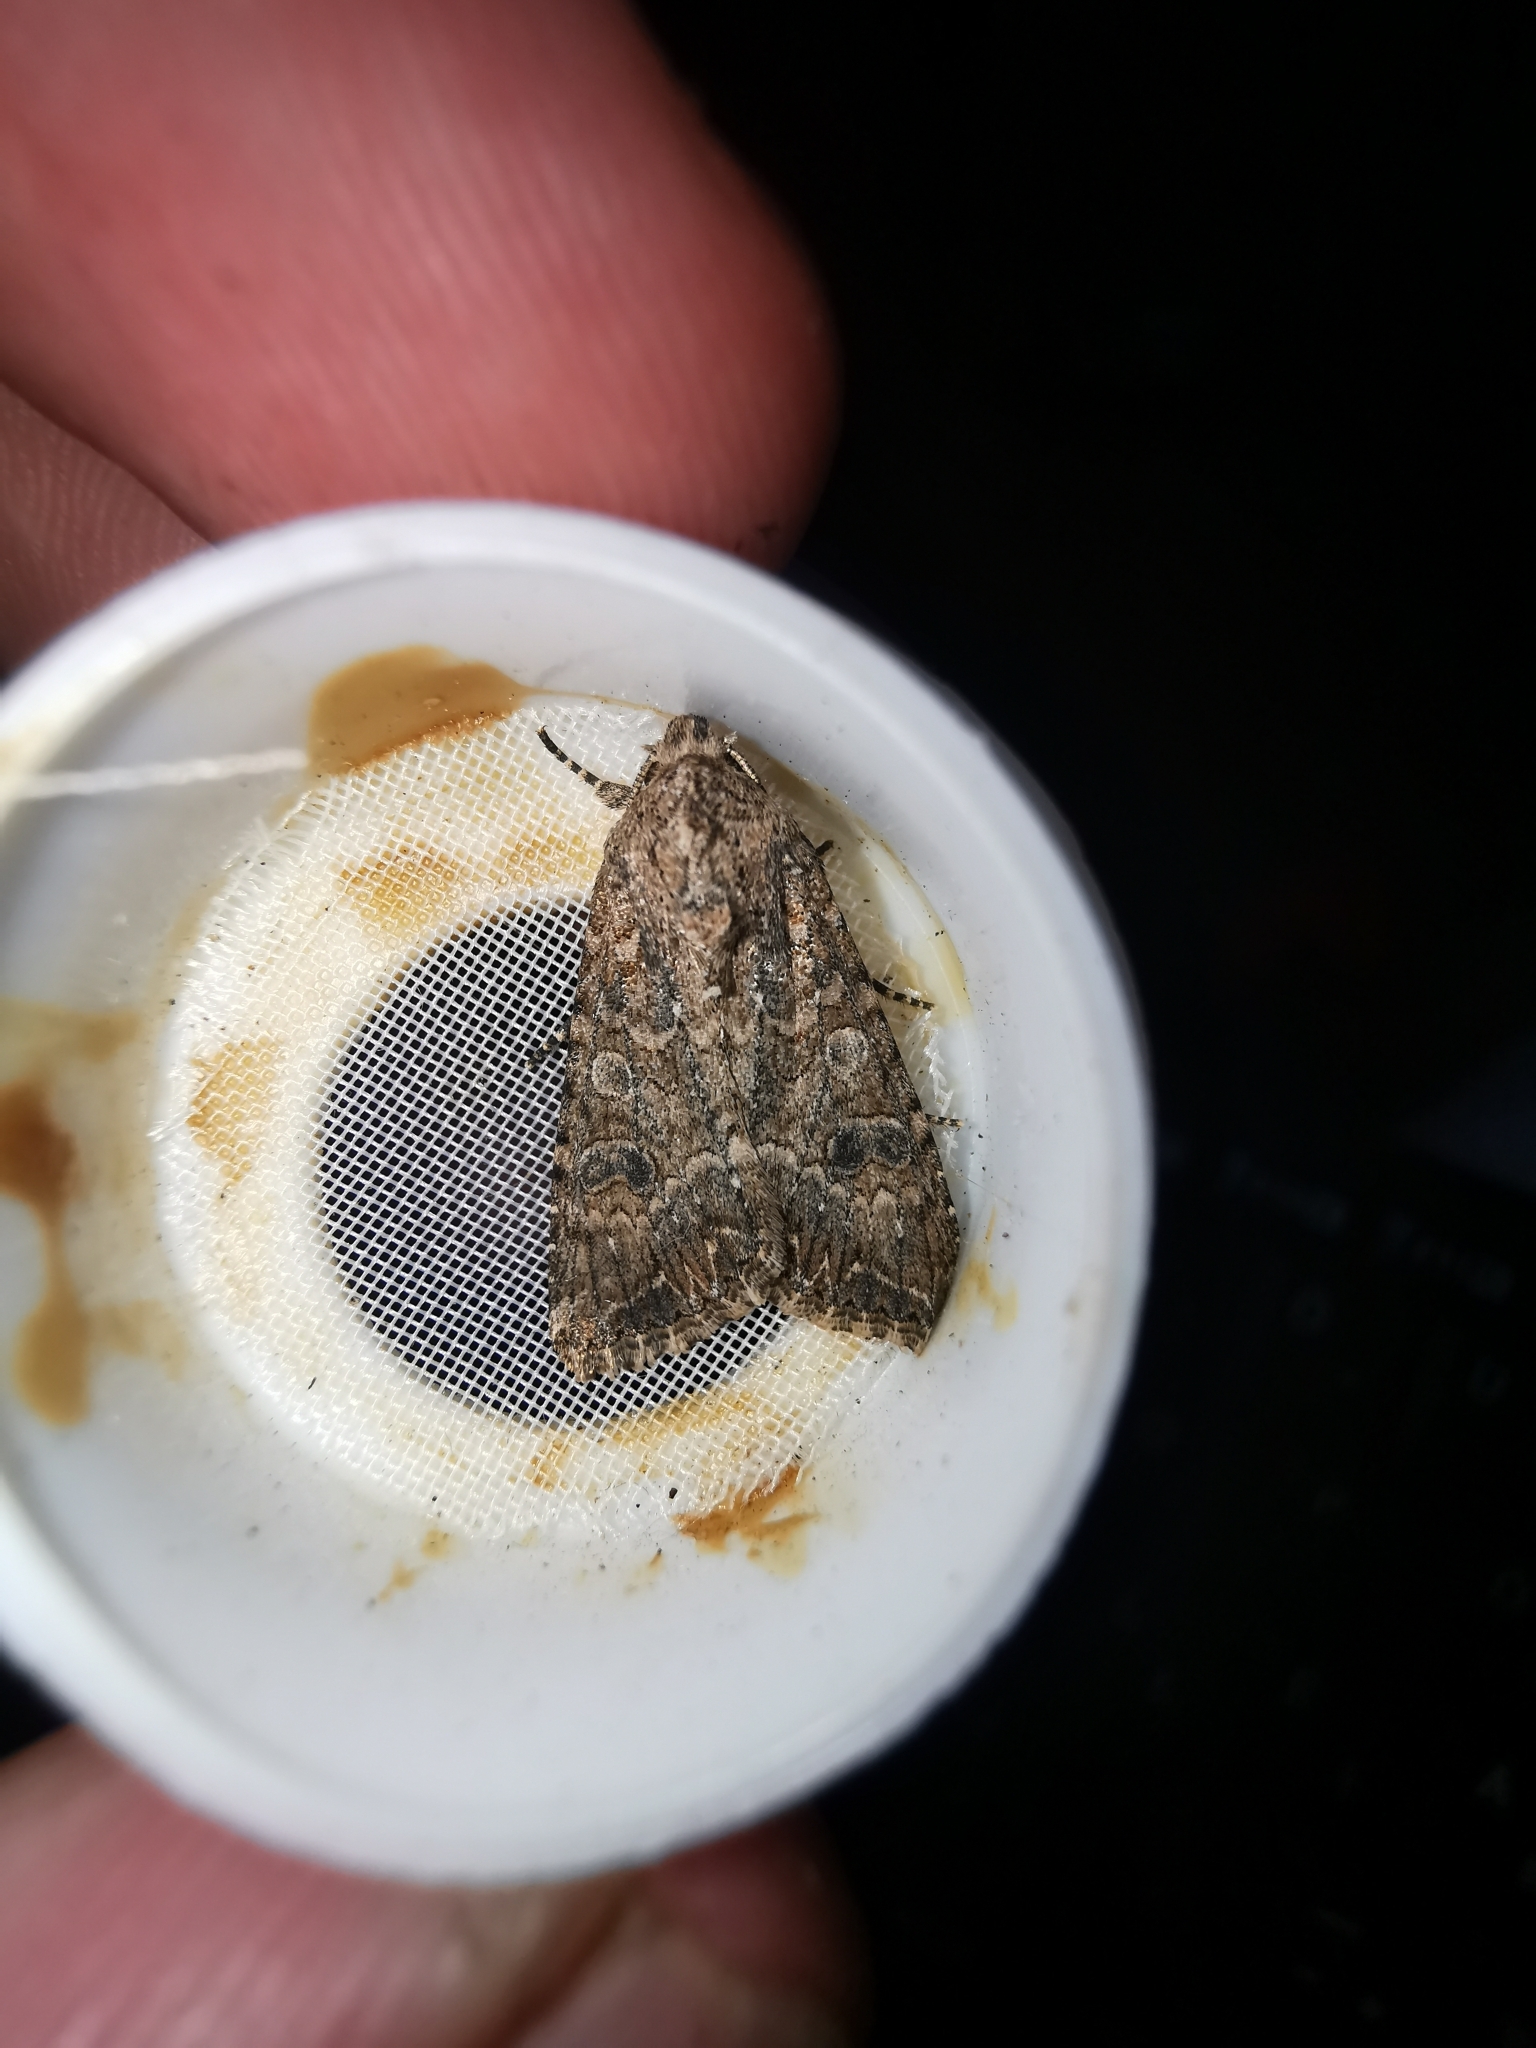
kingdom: Animalia
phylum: Arthropoda
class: Insecta
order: Lepidoptera
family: Noctuidae
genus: Anarta
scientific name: Anarta trifolii
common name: Clover cutworm moth
